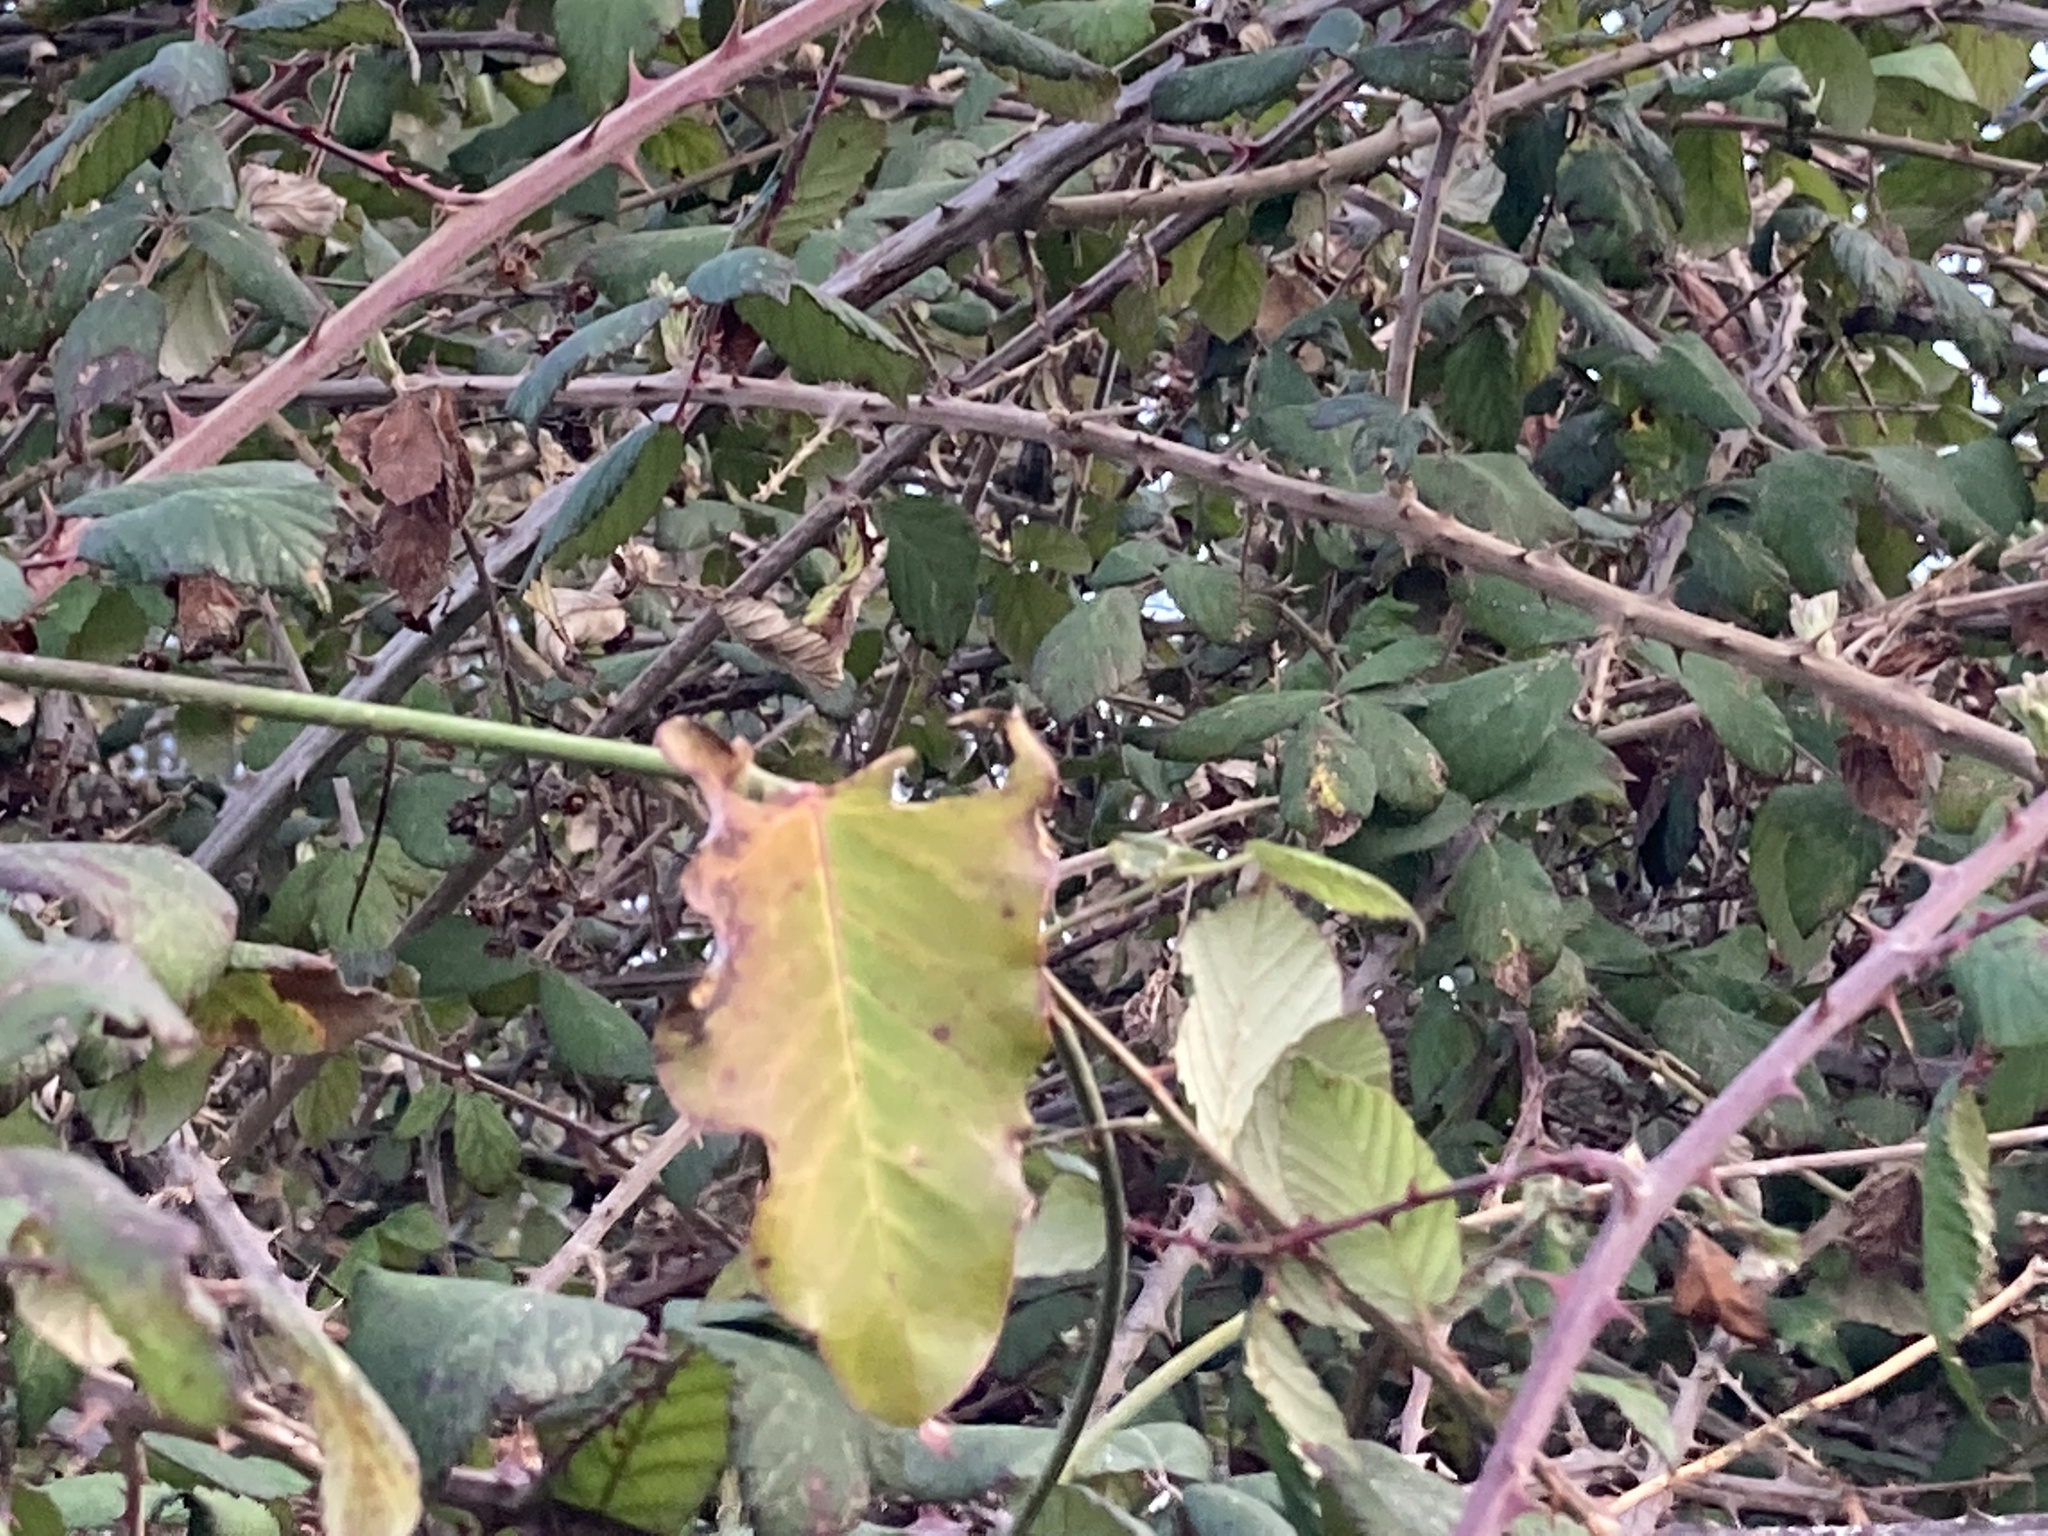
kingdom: Plantae
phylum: Tracheophyta
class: Magnoliopsida
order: Gentianales
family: Apocynaceae
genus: Araujia
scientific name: Araujia sericifera
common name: White bladderflower
